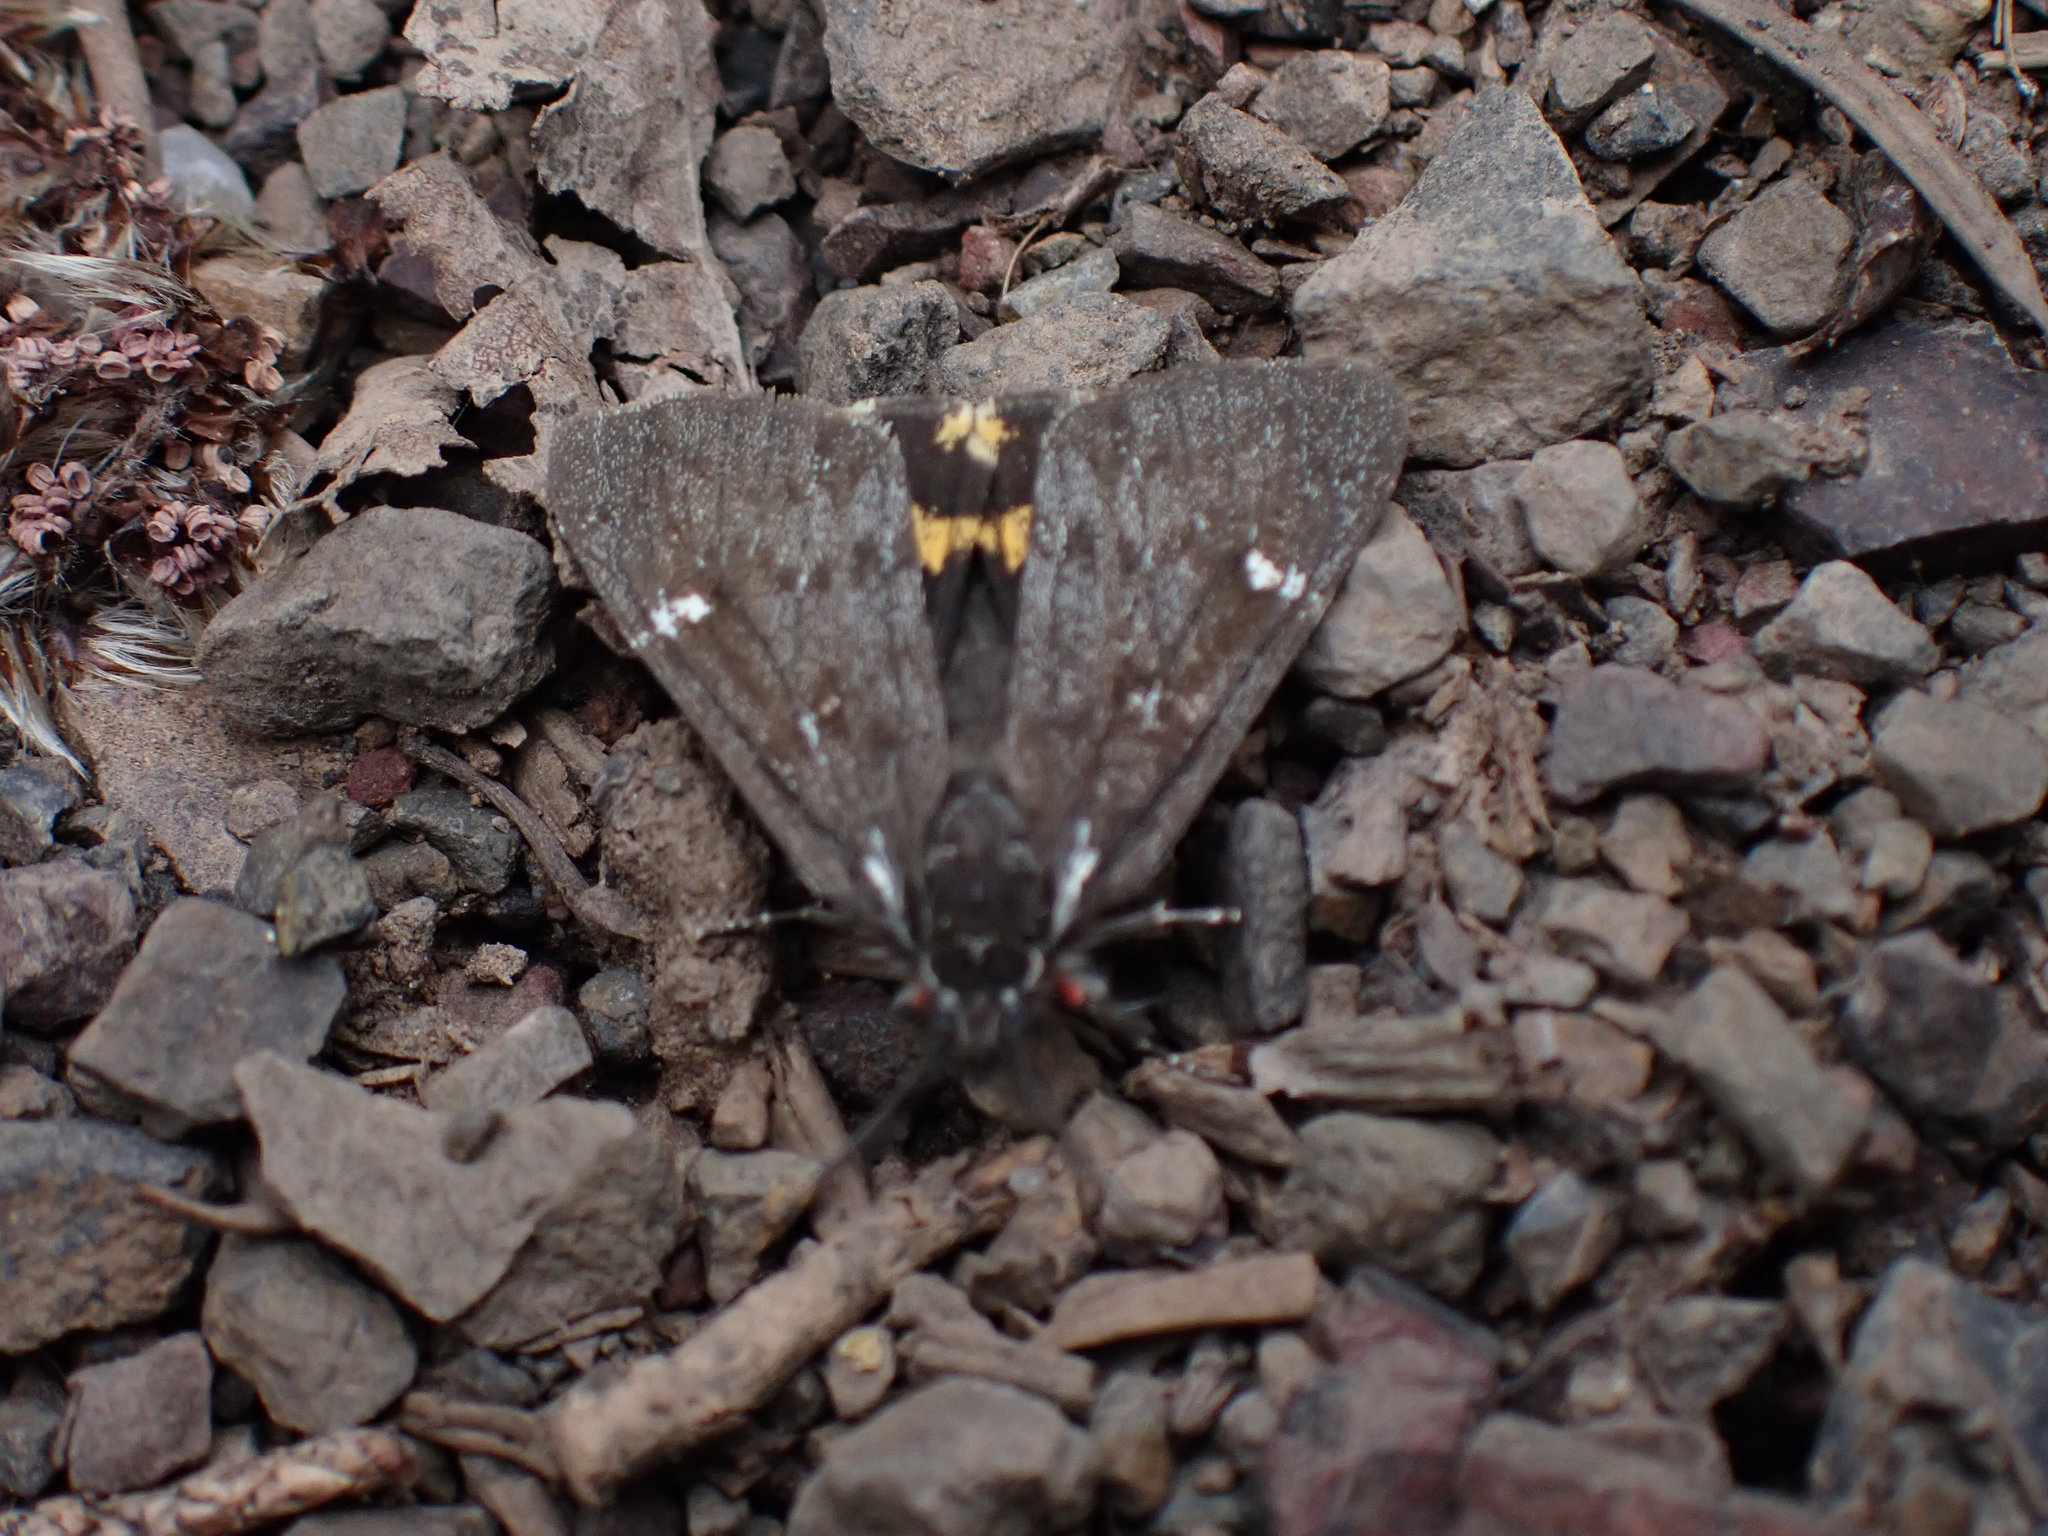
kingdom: Animalia
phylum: Arthropoda
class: Insecta
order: Lepidoptera
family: Erebidae
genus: Leptarctia
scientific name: Leptarctia californiae
